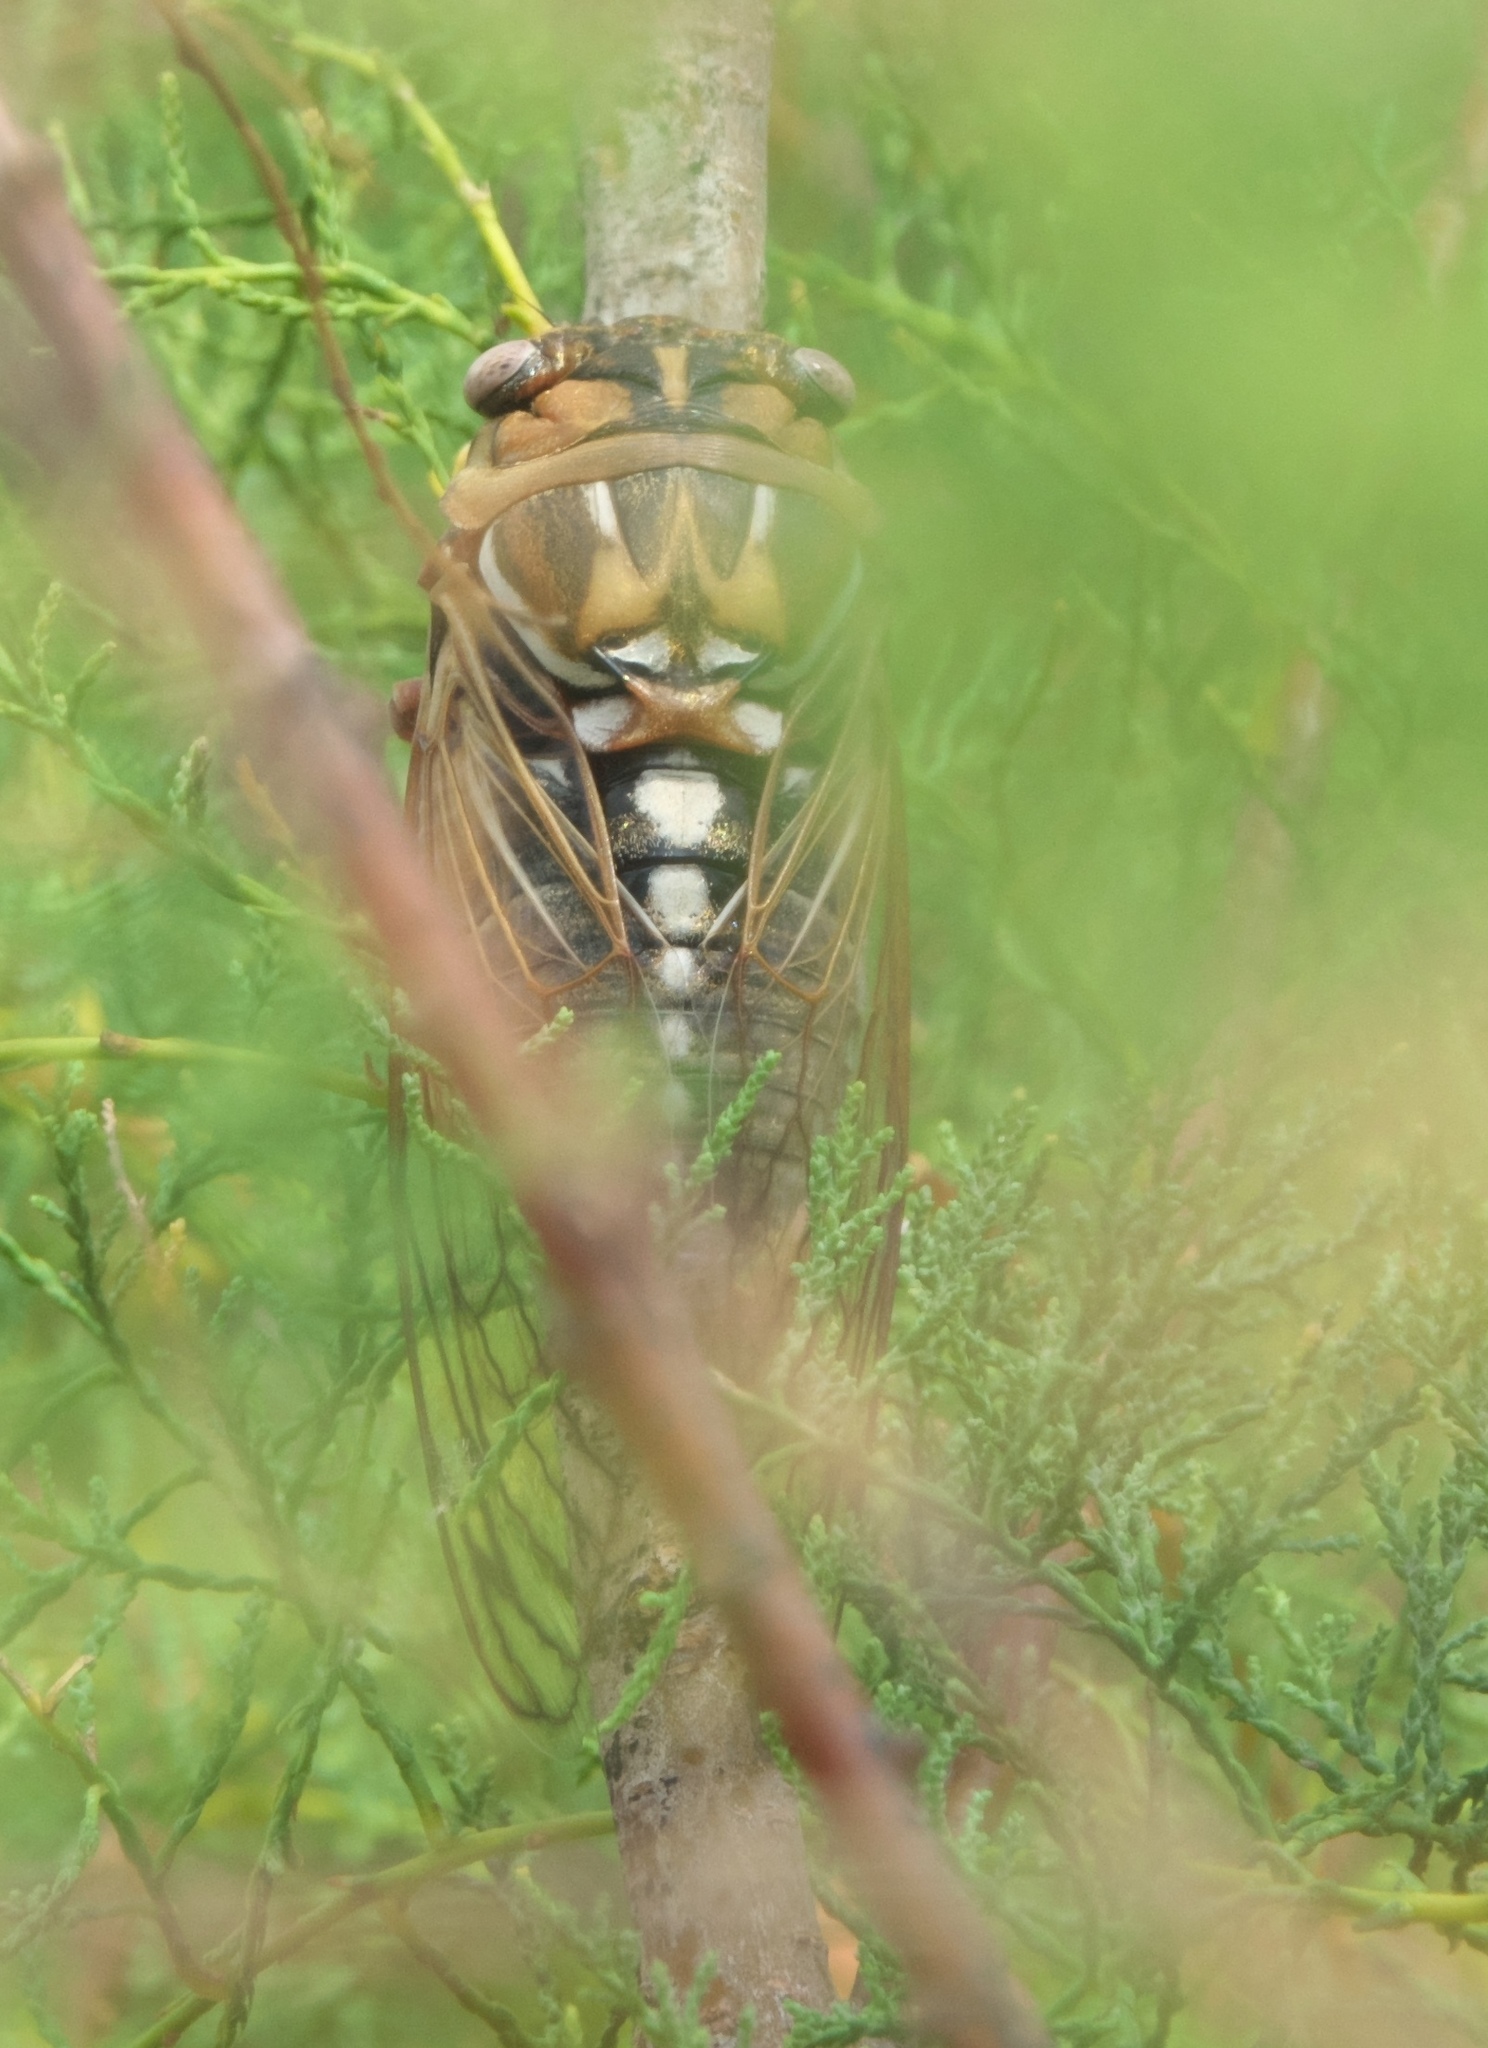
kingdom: Animalia
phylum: Arthropoda
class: Insecta
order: Hemiptera
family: Cicadidae
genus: Megatibicen
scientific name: Megatibicen dorsatus
